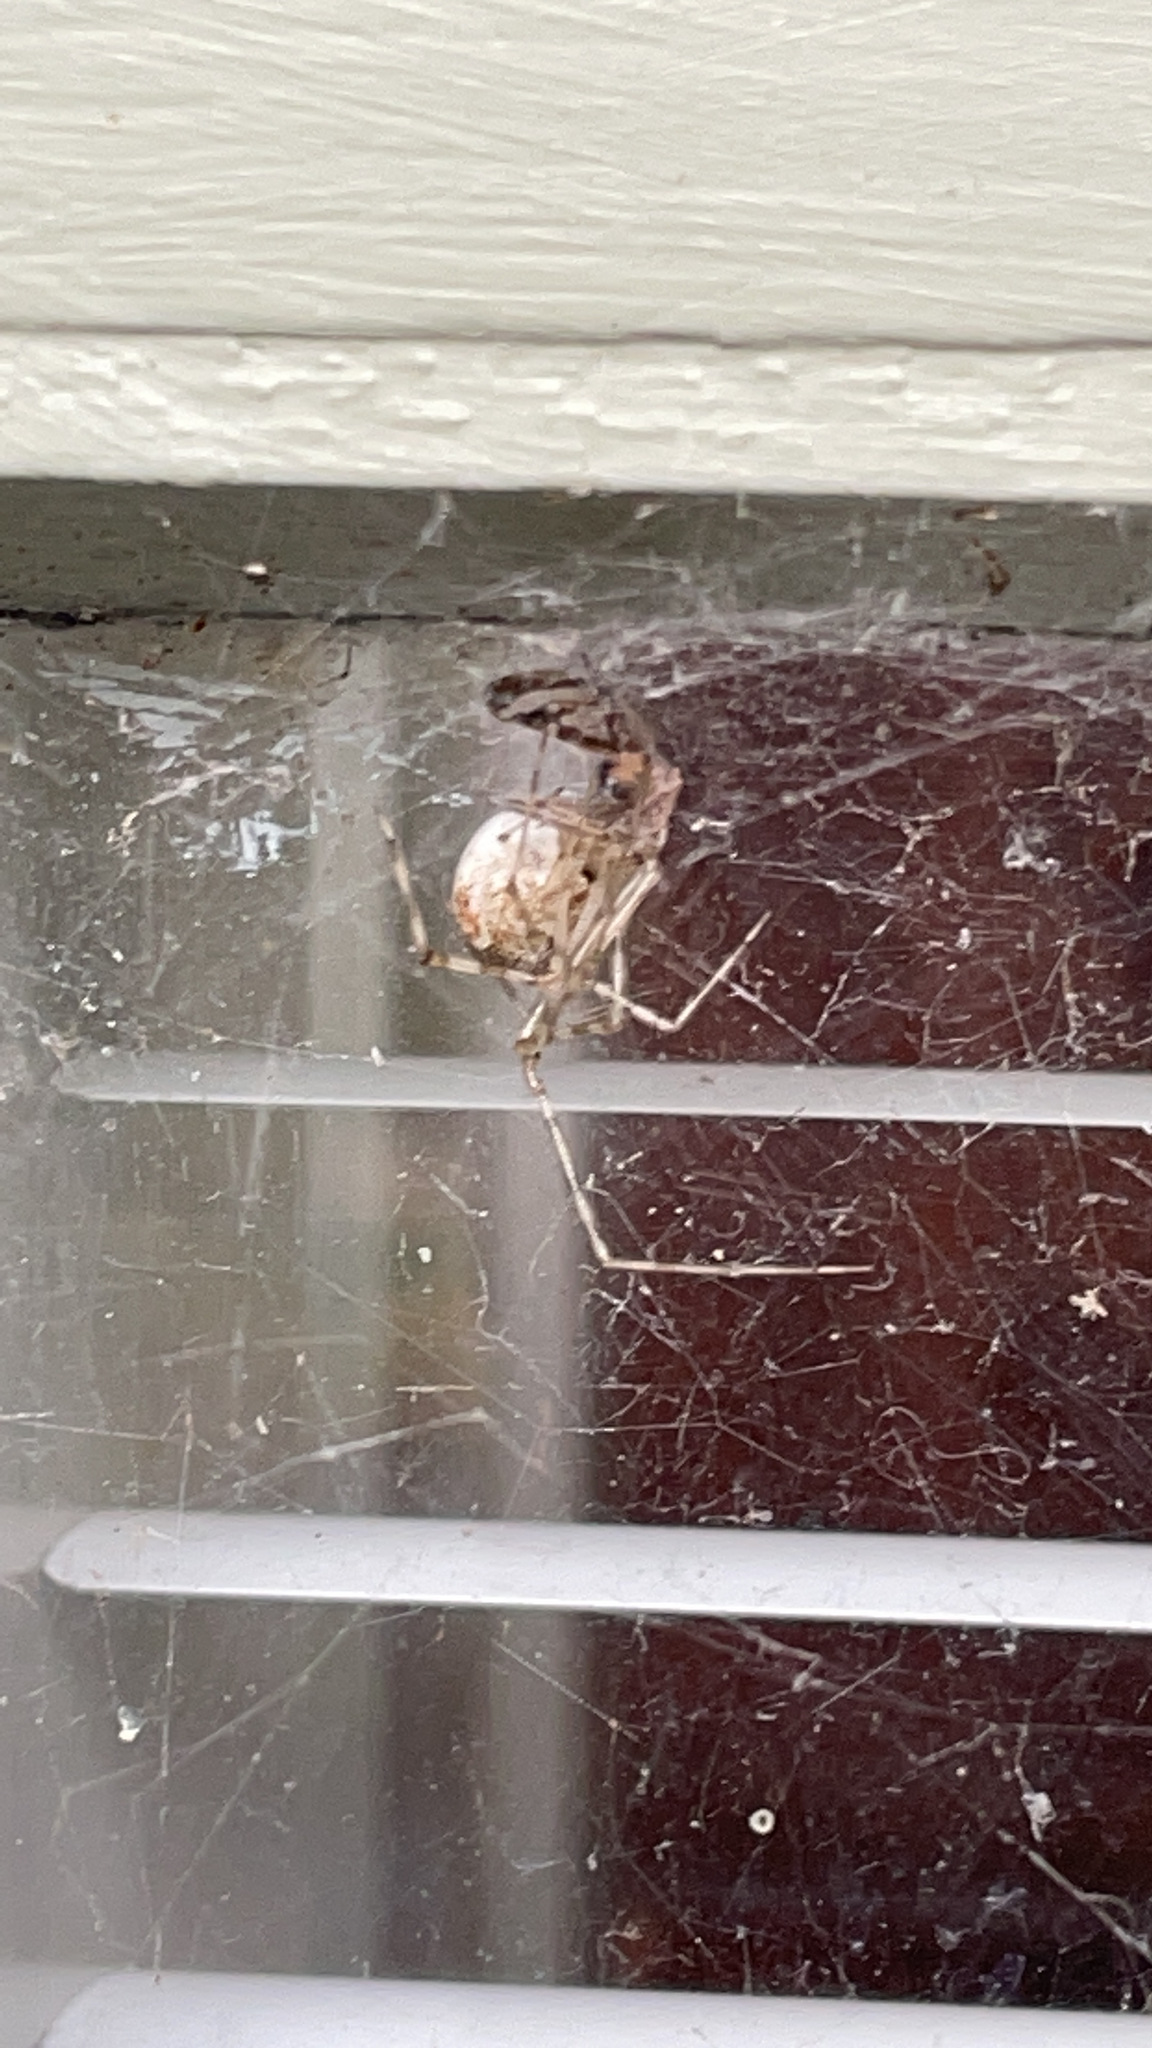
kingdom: Animalia
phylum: Arthropoda
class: Arachnida
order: Araneae
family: Theridiidae
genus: Cryptachaea
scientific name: Cryptachaea gigantipes
